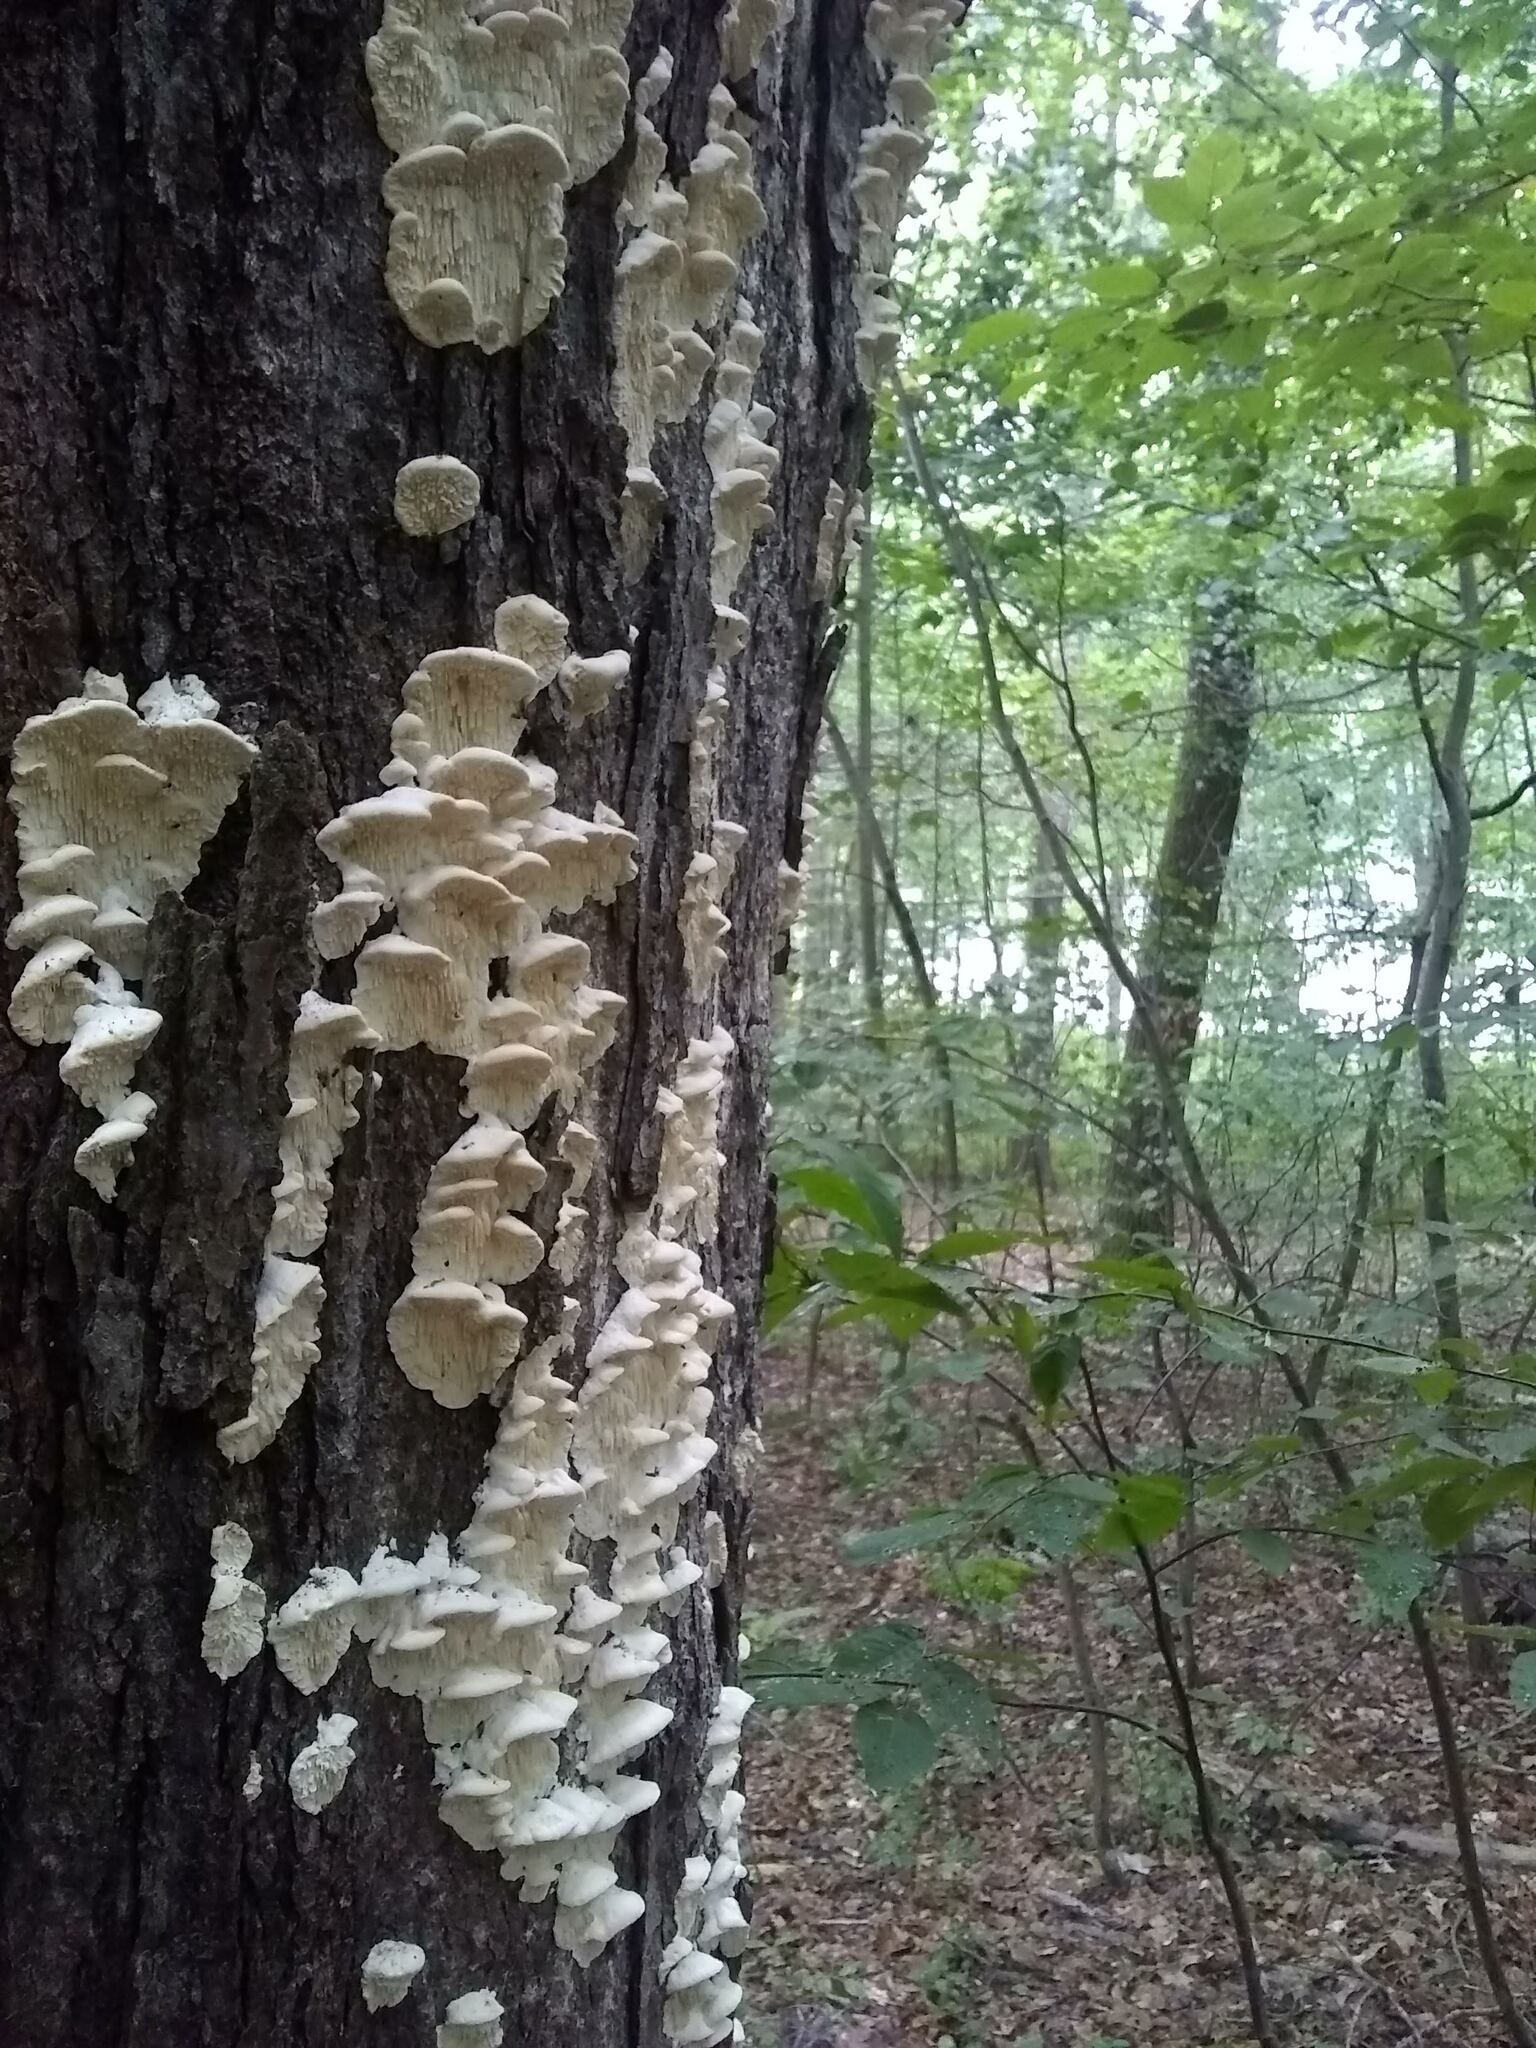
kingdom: Fungi
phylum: Basidiomycota
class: Agaricomycetes
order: Polyporales
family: Meruliaceae
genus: Irpiciporus
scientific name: Irpiciporus pachyodon
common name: Marshmallow polypore
